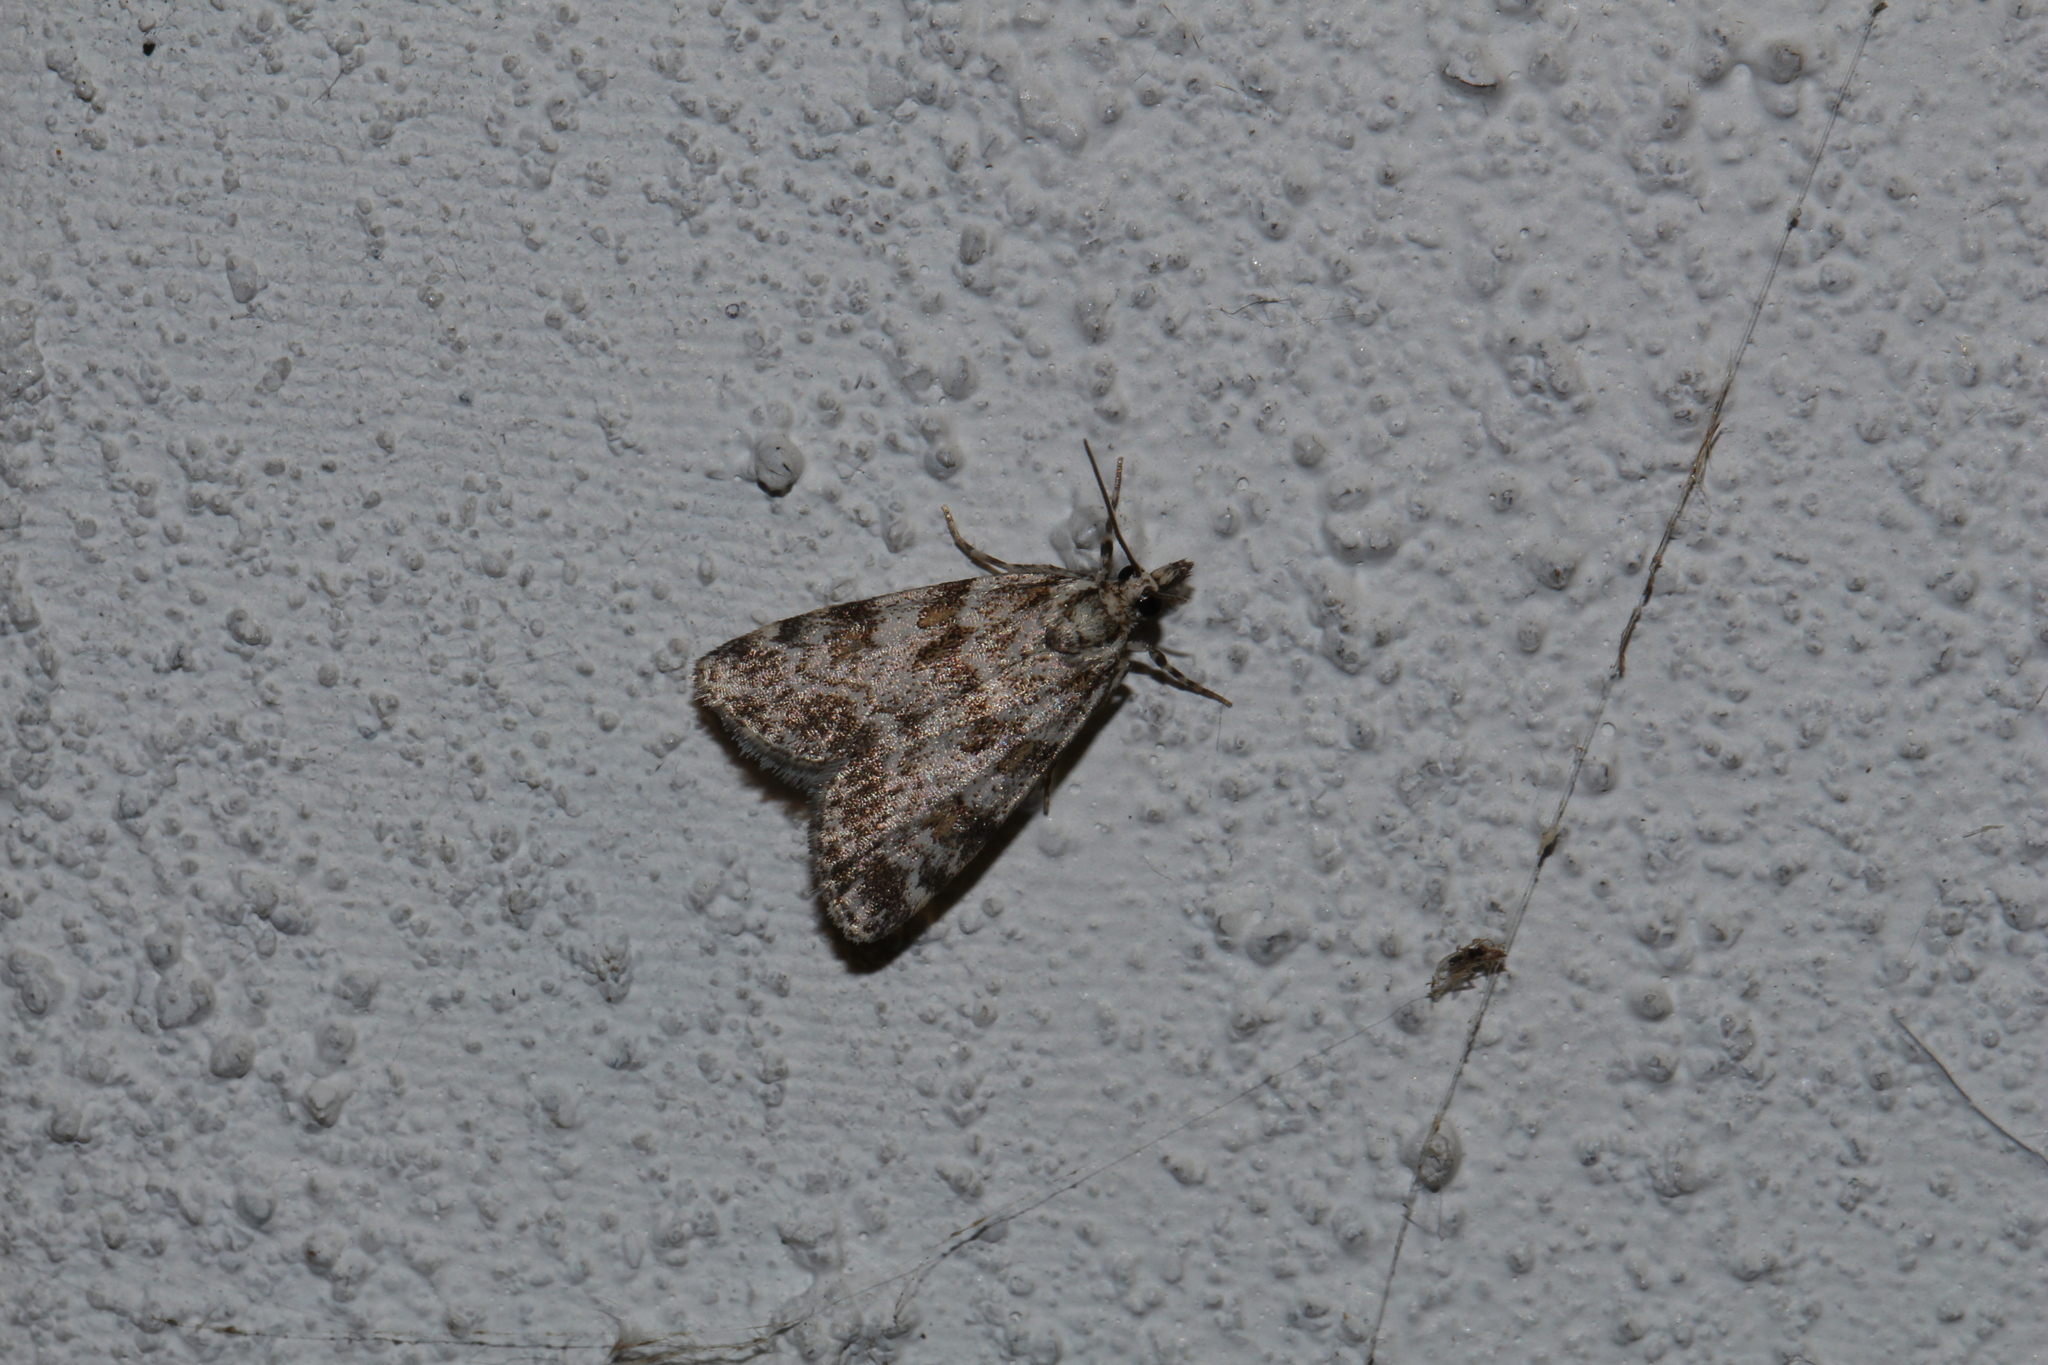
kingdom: Animalia
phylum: Arthropoda
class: Insecta
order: Lepidoptera
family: Crambidae
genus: Scoparia
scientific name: Scoparia pyralella
